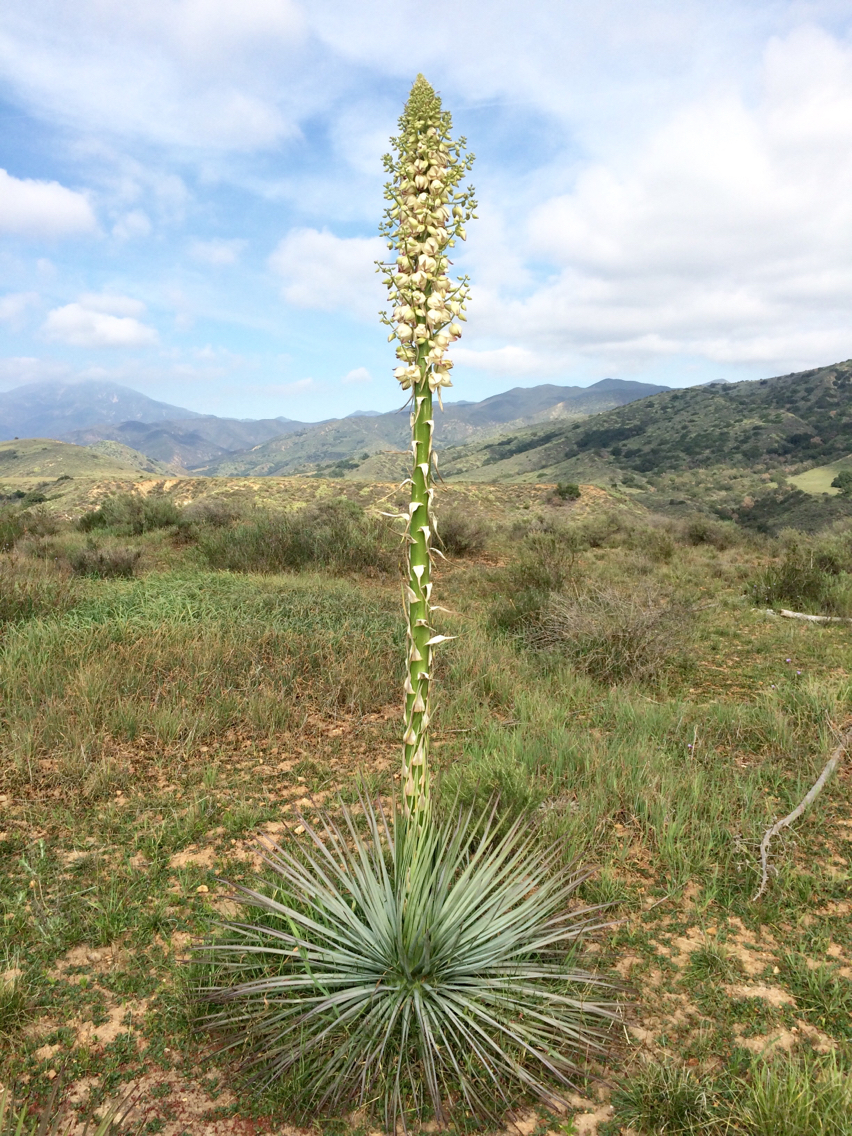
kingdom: Plantae
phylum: Tracheophyta
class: Liliopsida
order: Asparagales
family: Asparagaceae
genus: Hesperoyucca
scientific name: Hesperoyucca whipplei
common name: Our lord's-candle
